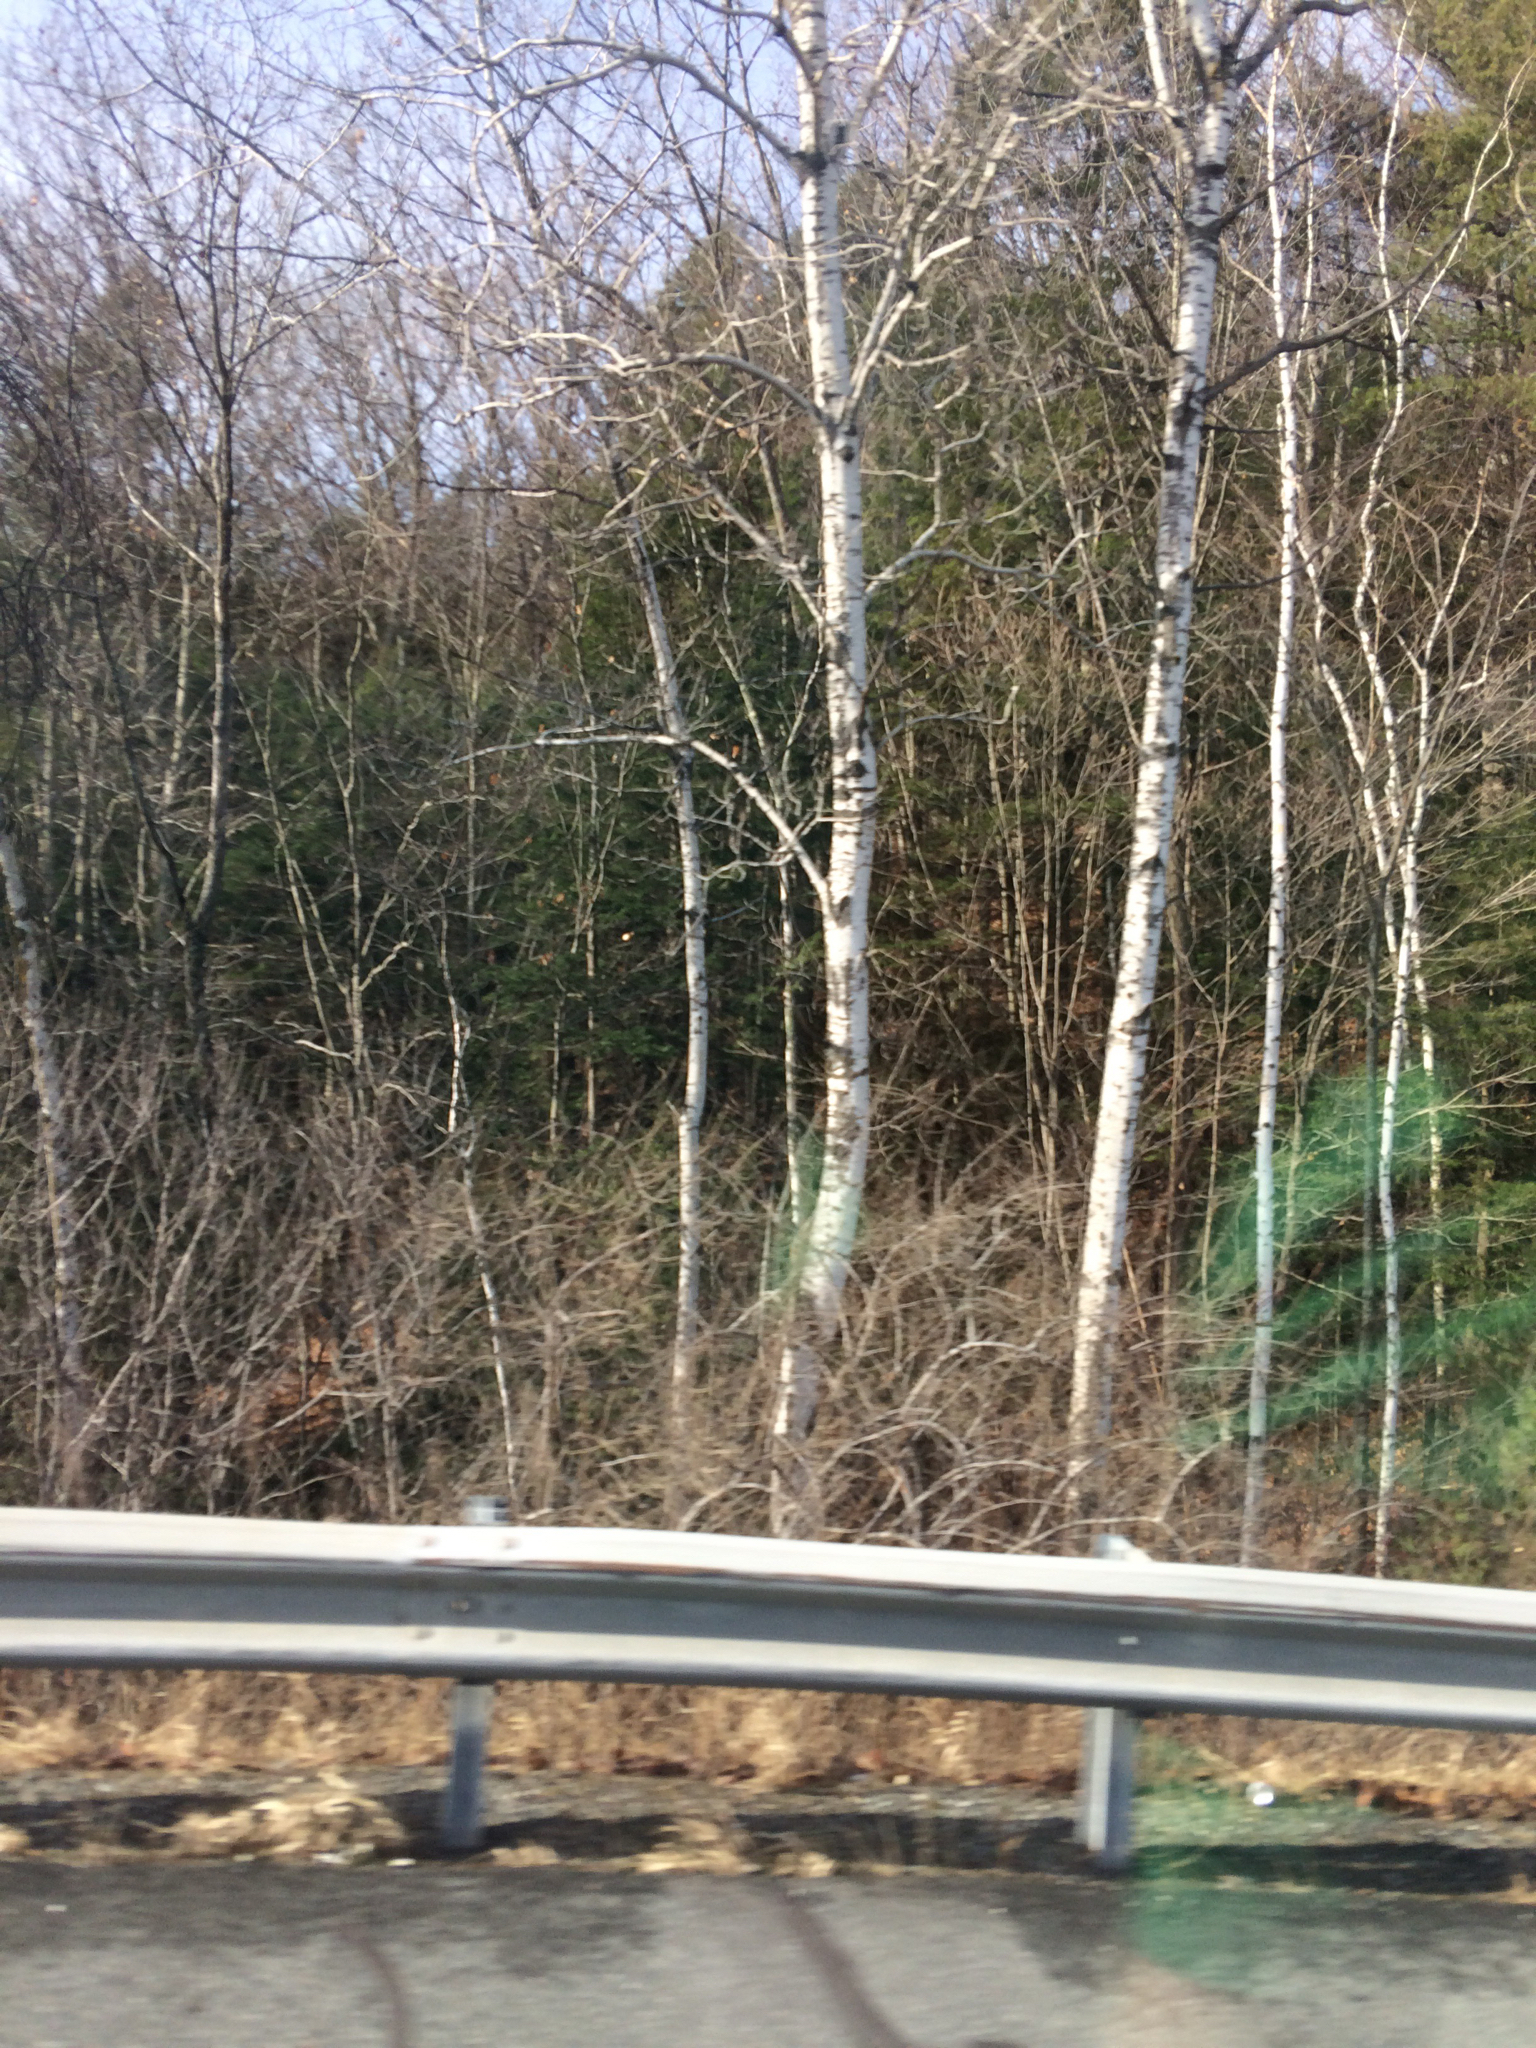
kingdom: Plantae
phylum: Tracheophyta
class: Magnoliopsida
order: Malpighiales
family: Salicaceae
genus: Populus
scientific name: Populus tremuloides
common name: Quaking aspen
